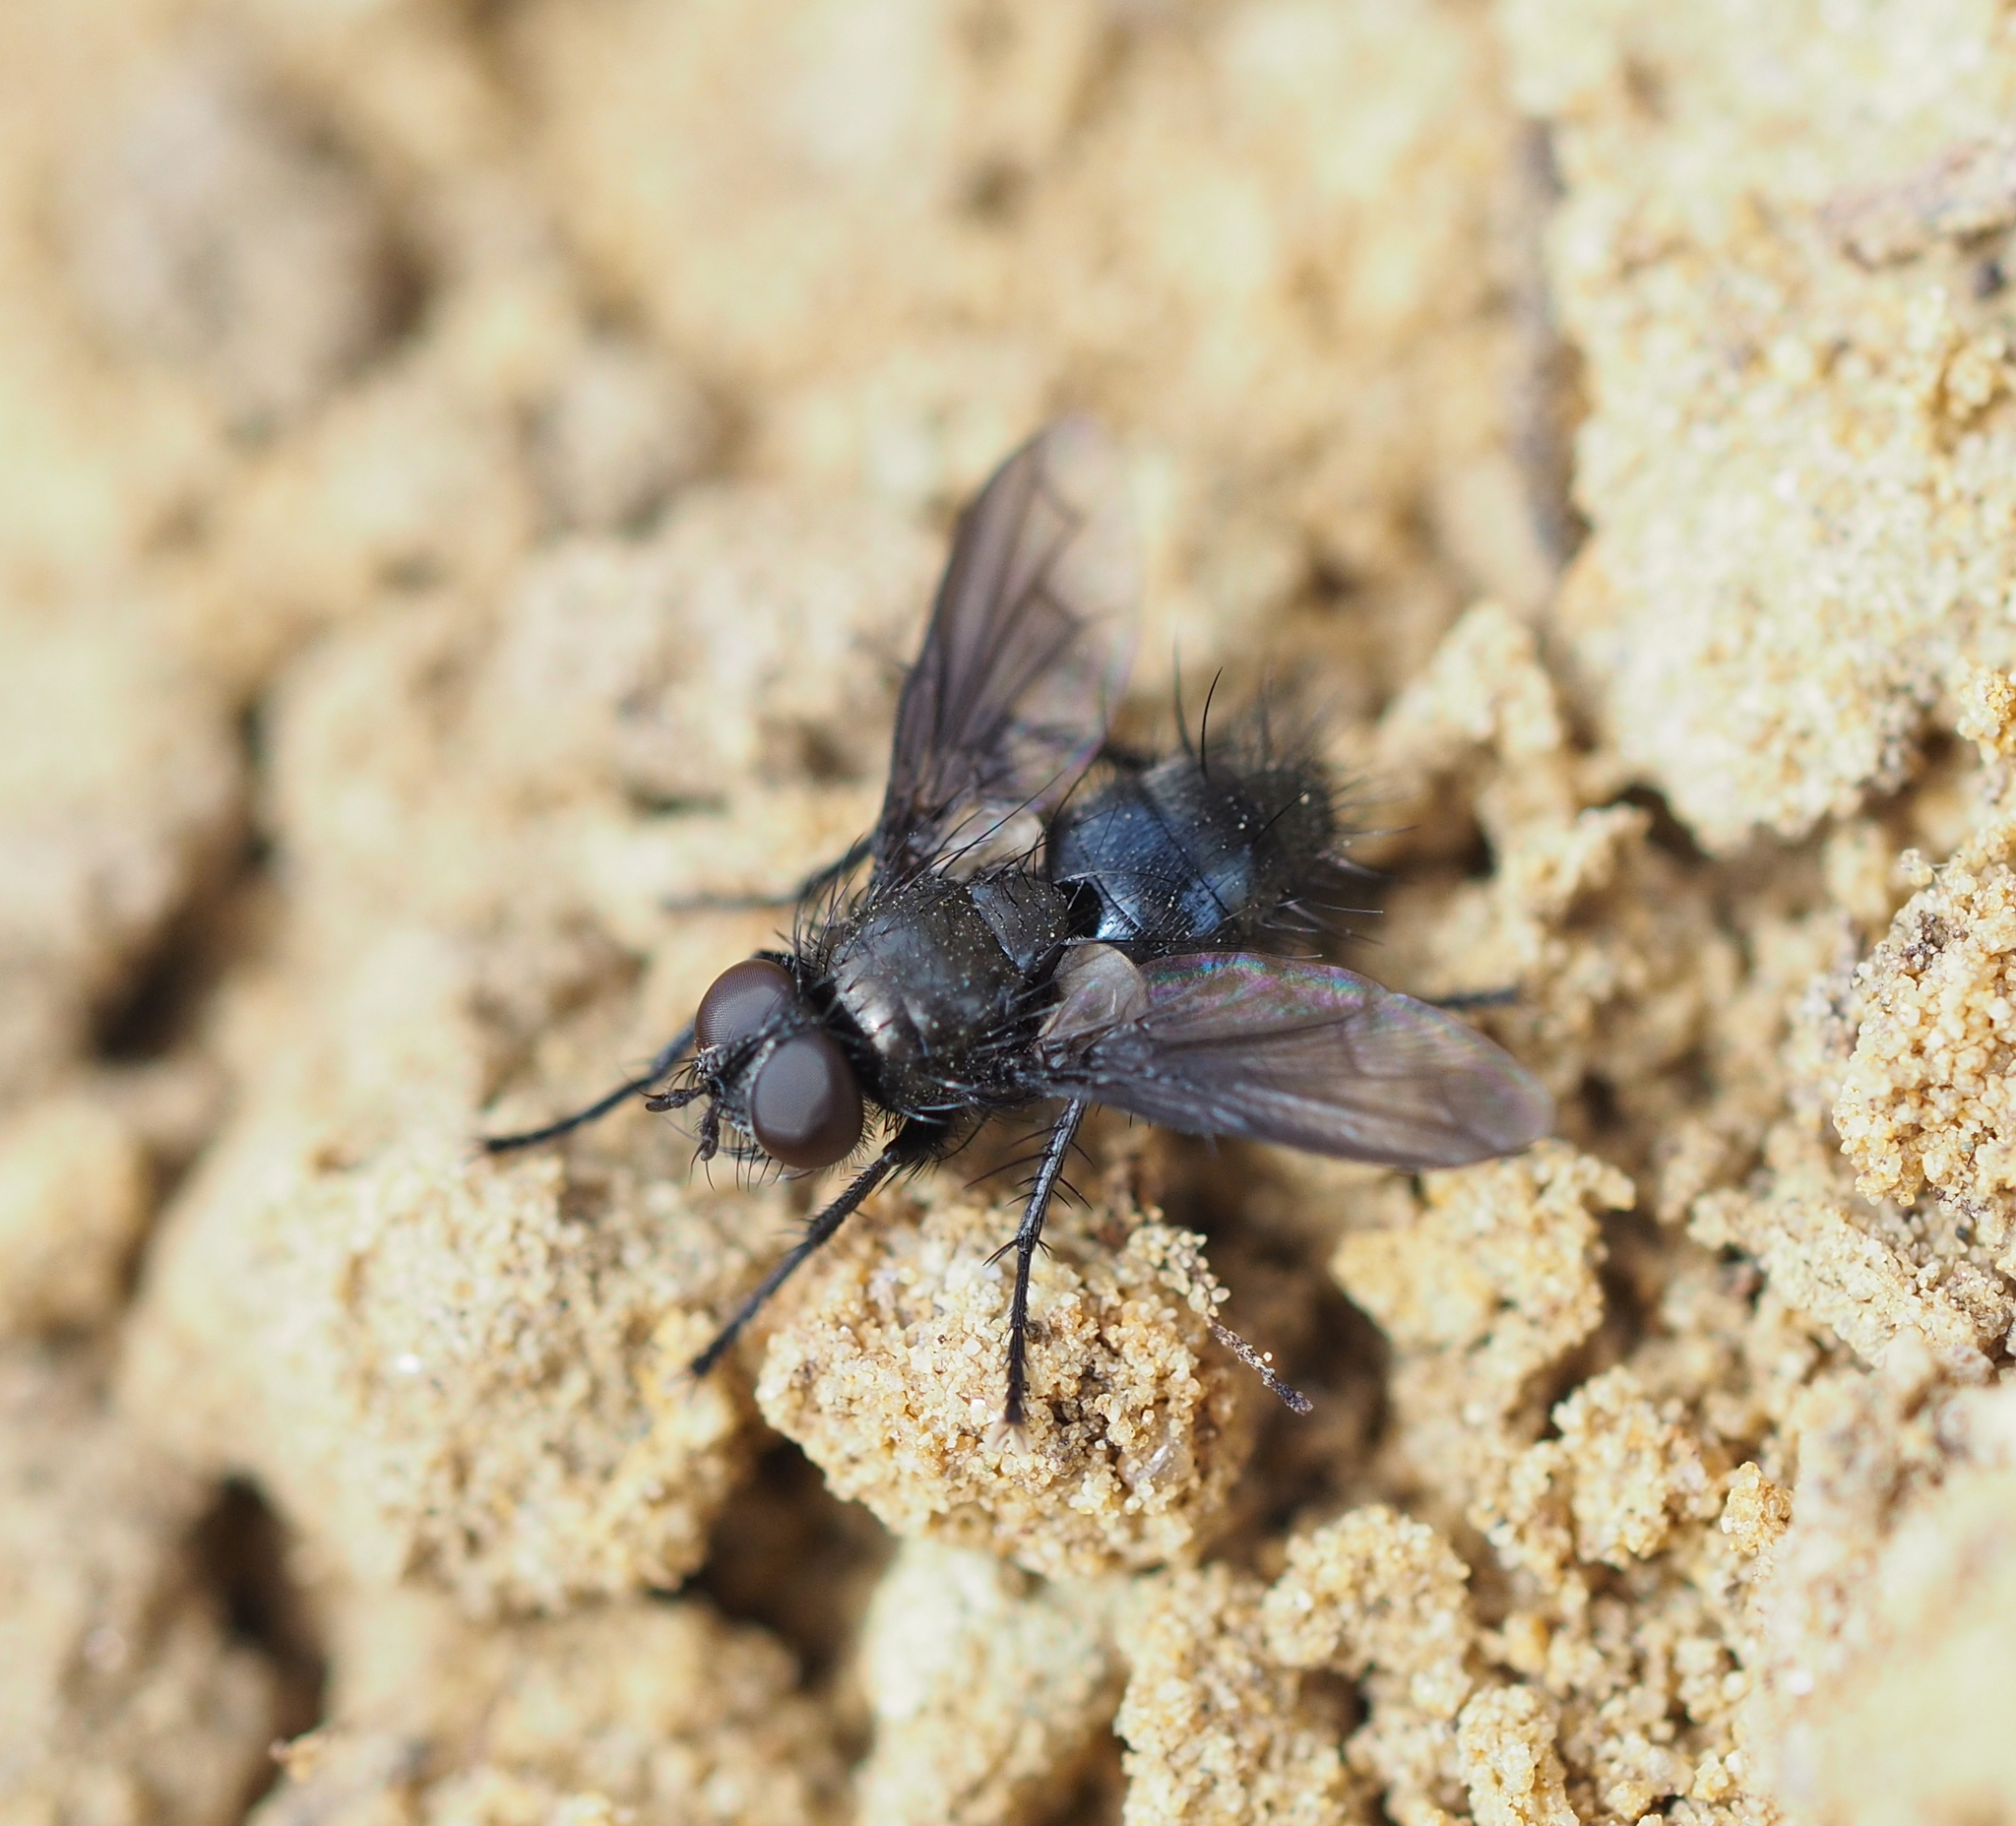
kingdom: Animalia
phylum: Arthropoda
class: Insecta
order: Diptera
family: Tachinidae
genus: Kirbya
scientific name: Kirbya moerens
